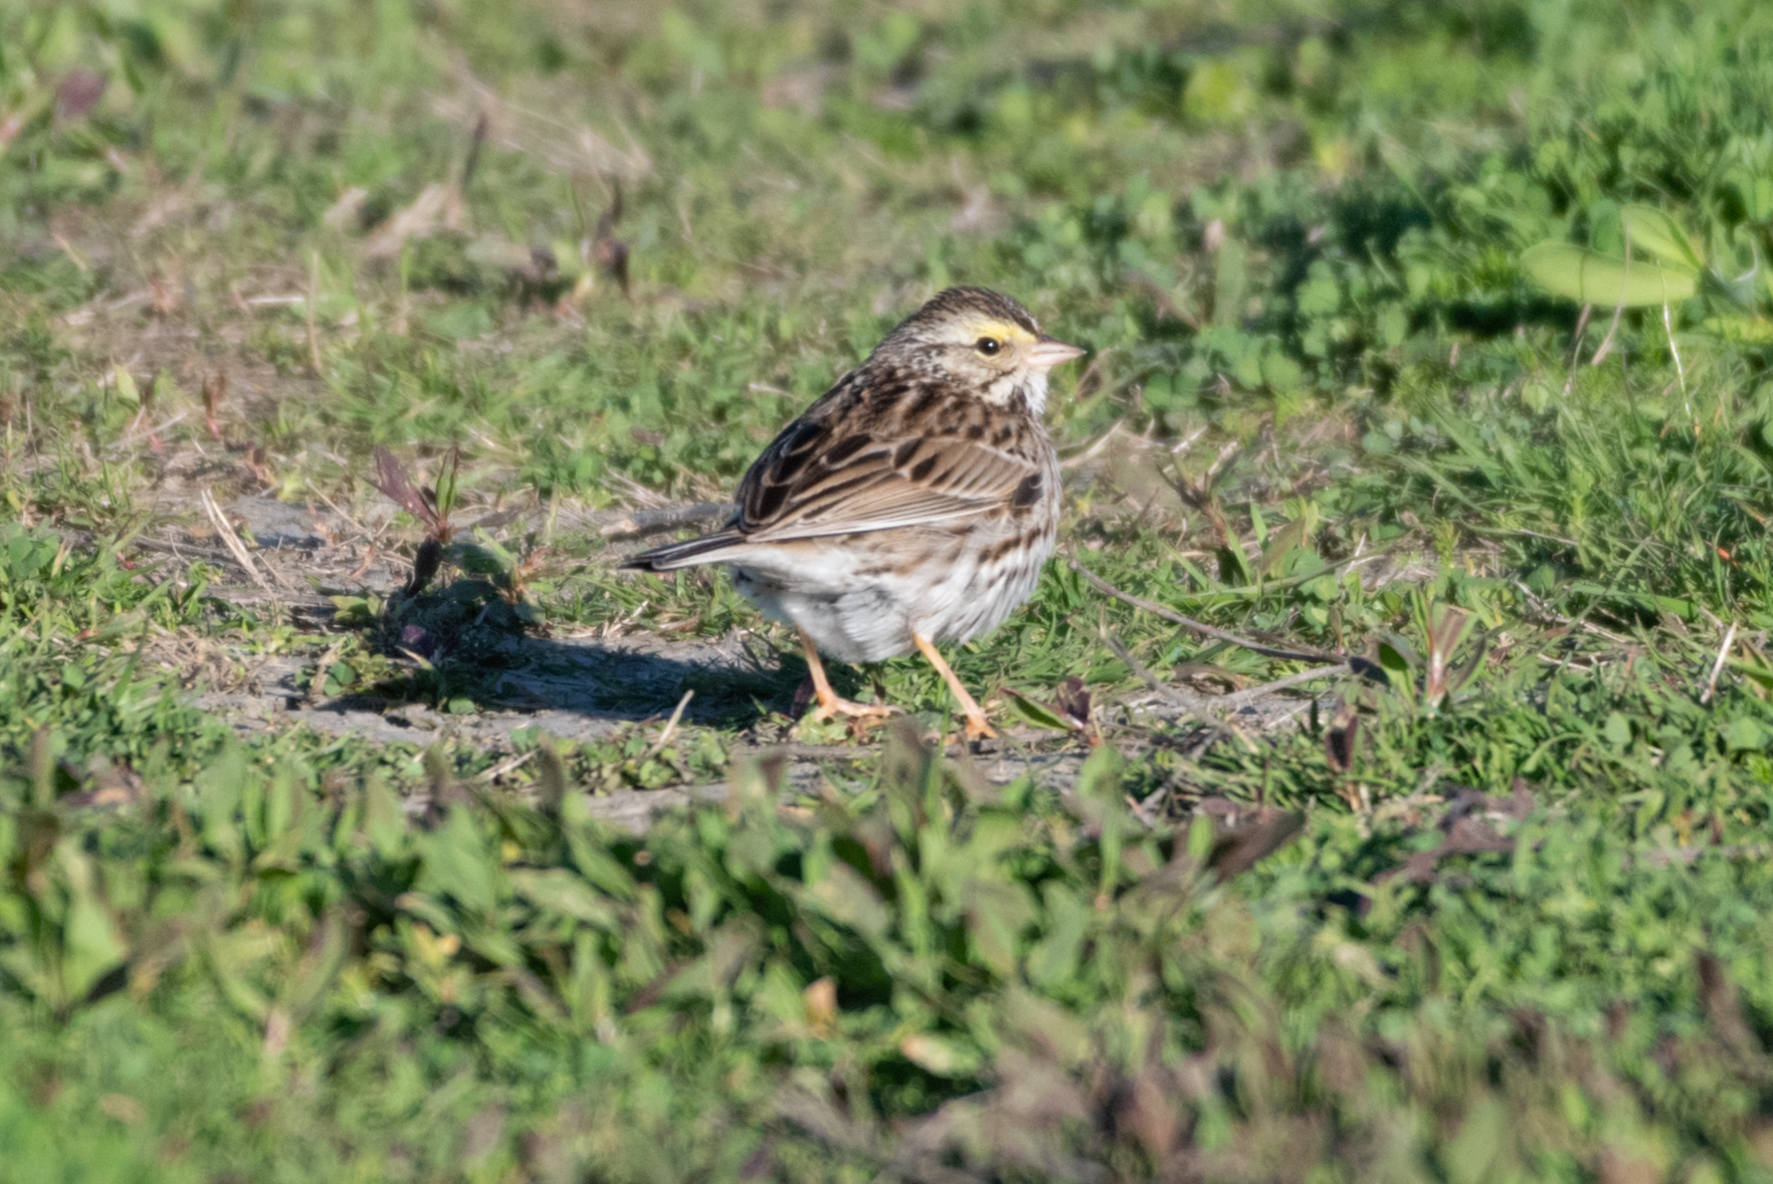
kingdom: Animalia
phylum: Chordata
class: Aves
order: Passeriformes
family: Passerellidae
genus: Passerculus
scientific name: Passerculus sandwichensis
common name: Savannah sparrow
